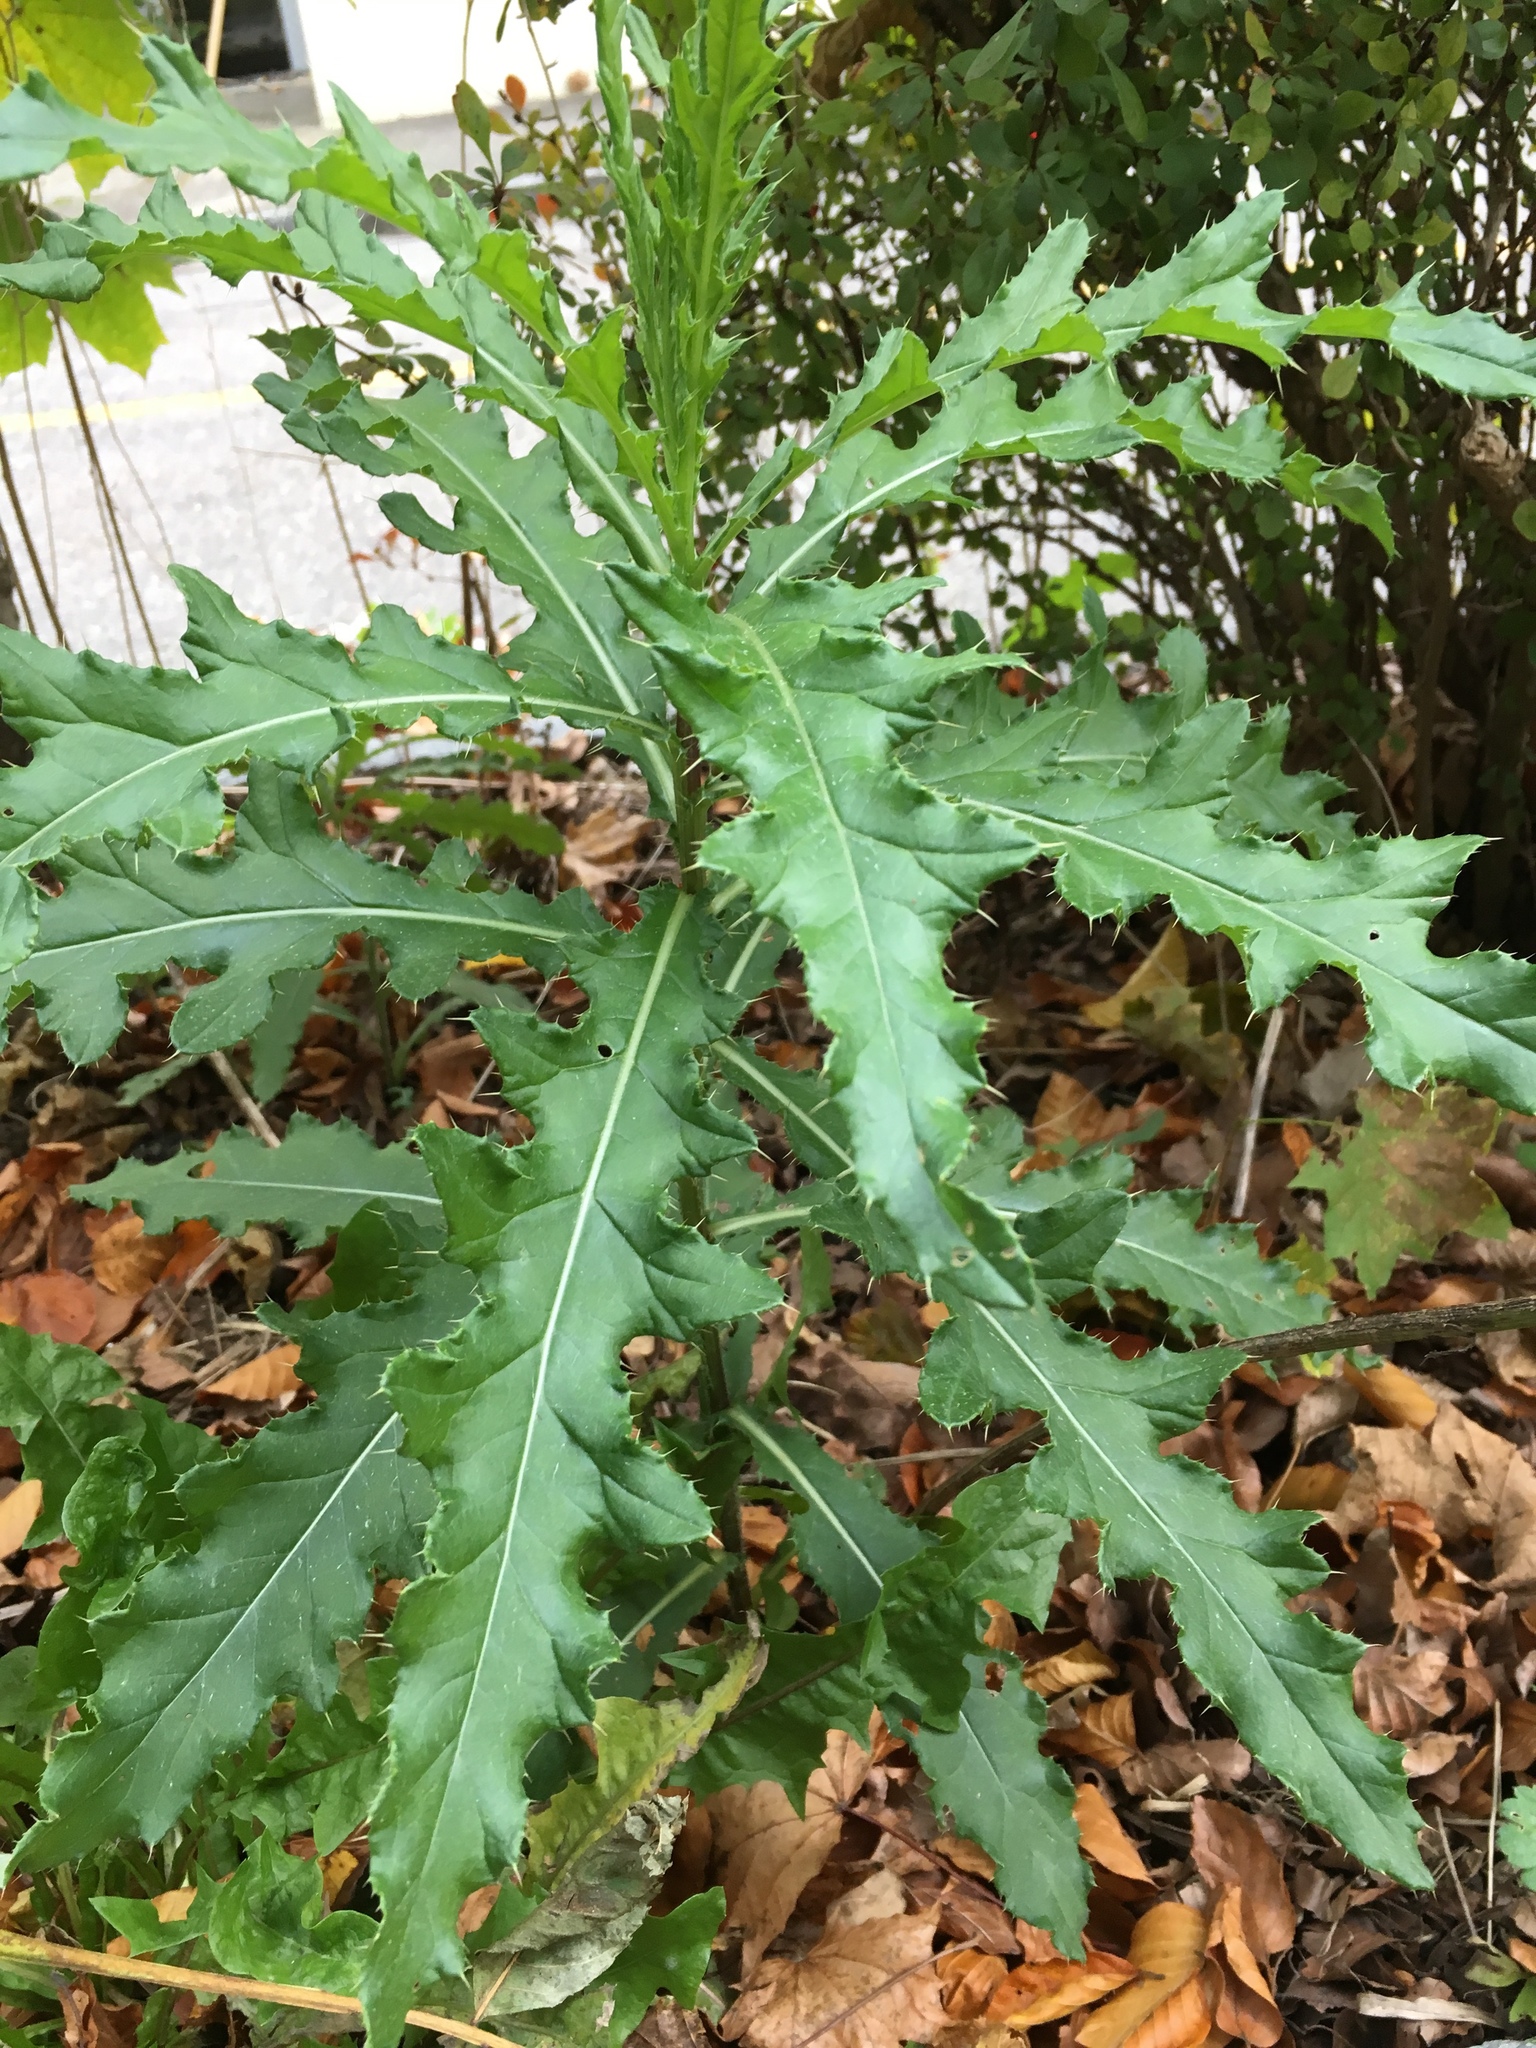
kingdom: Plantae
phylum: Tracheophyta
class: Magnoliopsida
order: Asterales
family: Asteraceae
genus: Cirsium
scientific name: Cirsium arvense
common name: Creeping thistle
